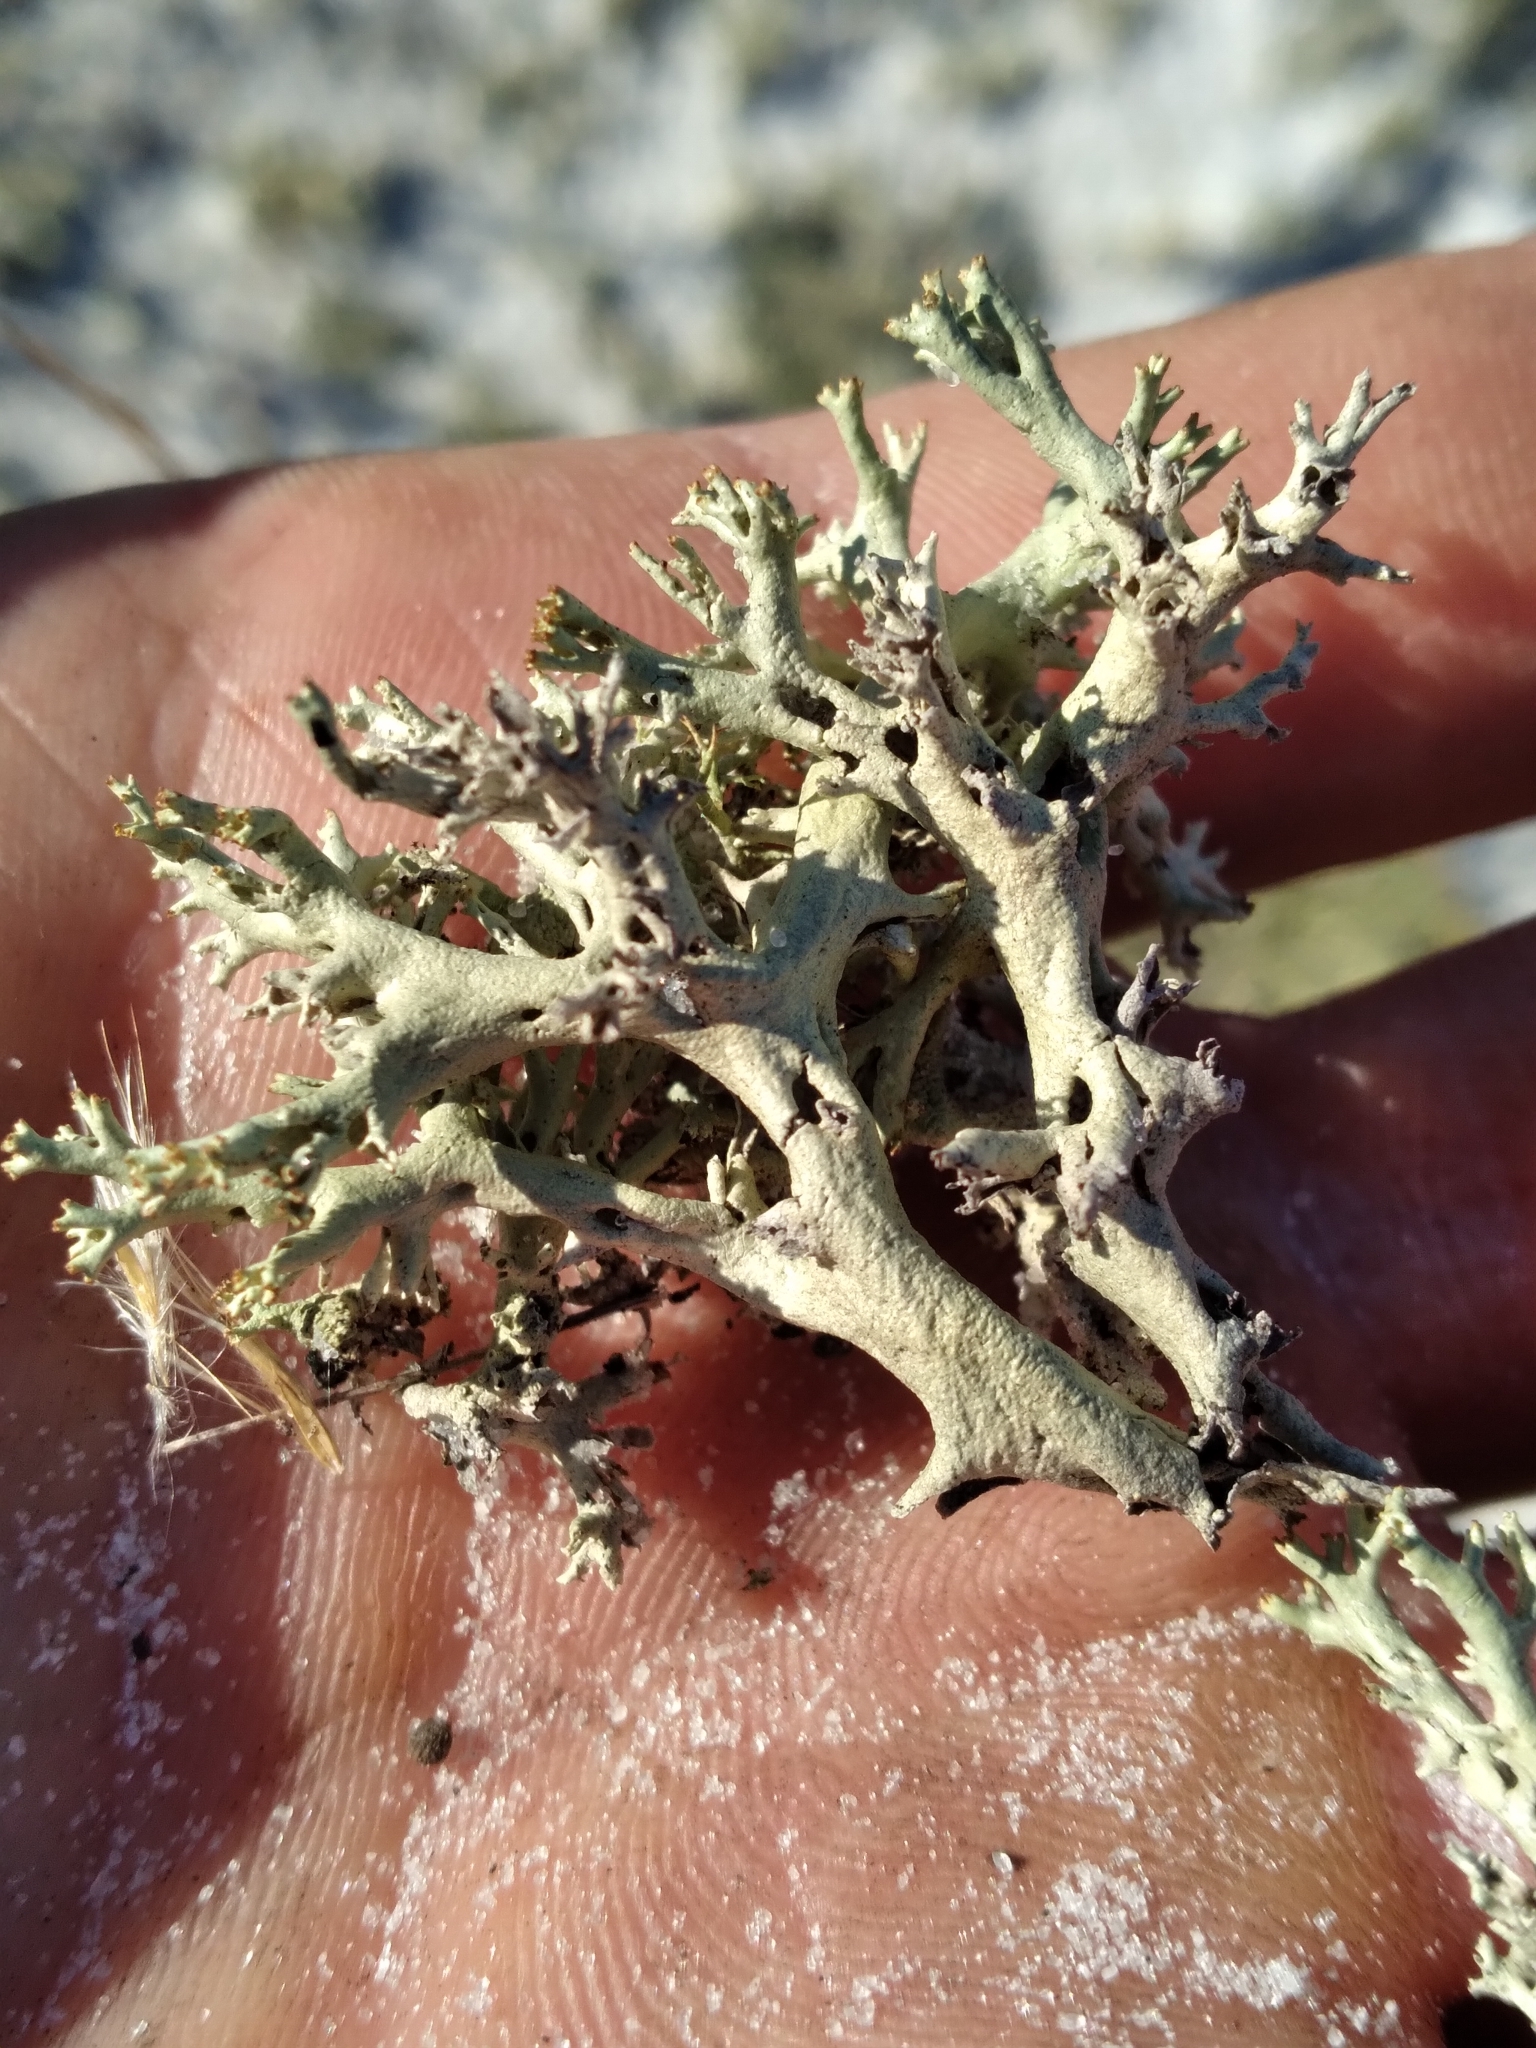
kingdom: Fungi
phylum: Ascomycota
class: Lecanoromycetes
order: Lecanorales
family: Cladoniaceae
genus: Cladonia
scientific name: Cladonia perforata
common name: Florida perforate reindeer lichen
